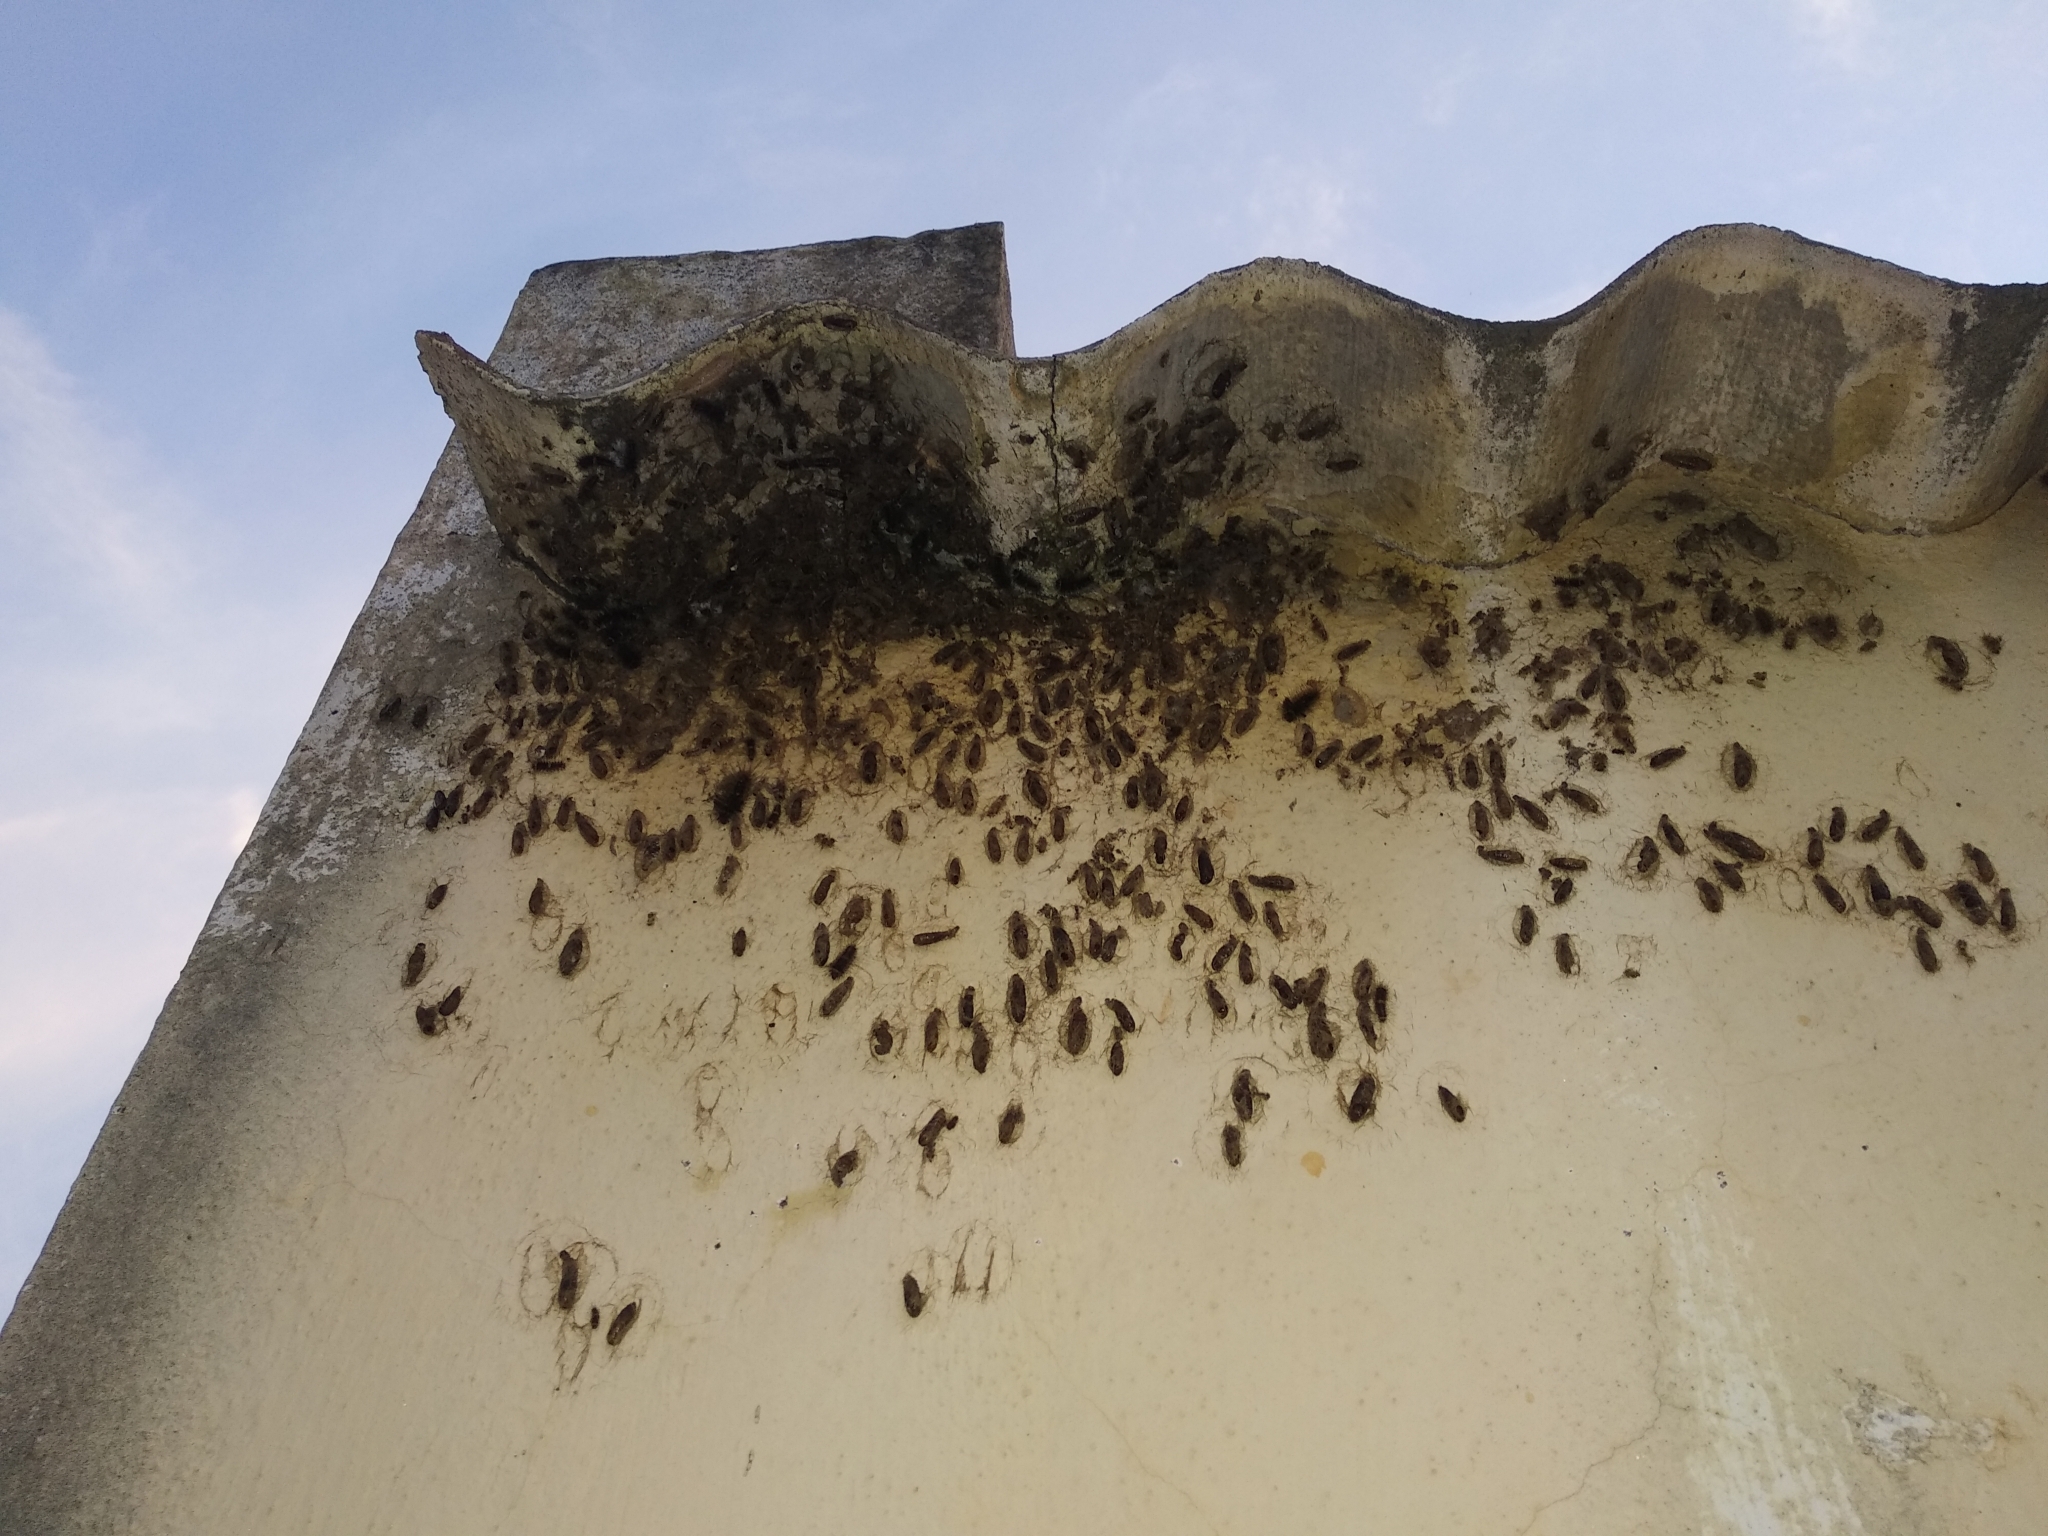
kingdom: Animalia
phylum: Arthropoda
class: Insecta
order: Lepidoptera
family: Erebidae
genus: Nepita
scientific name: Nepita conferta
